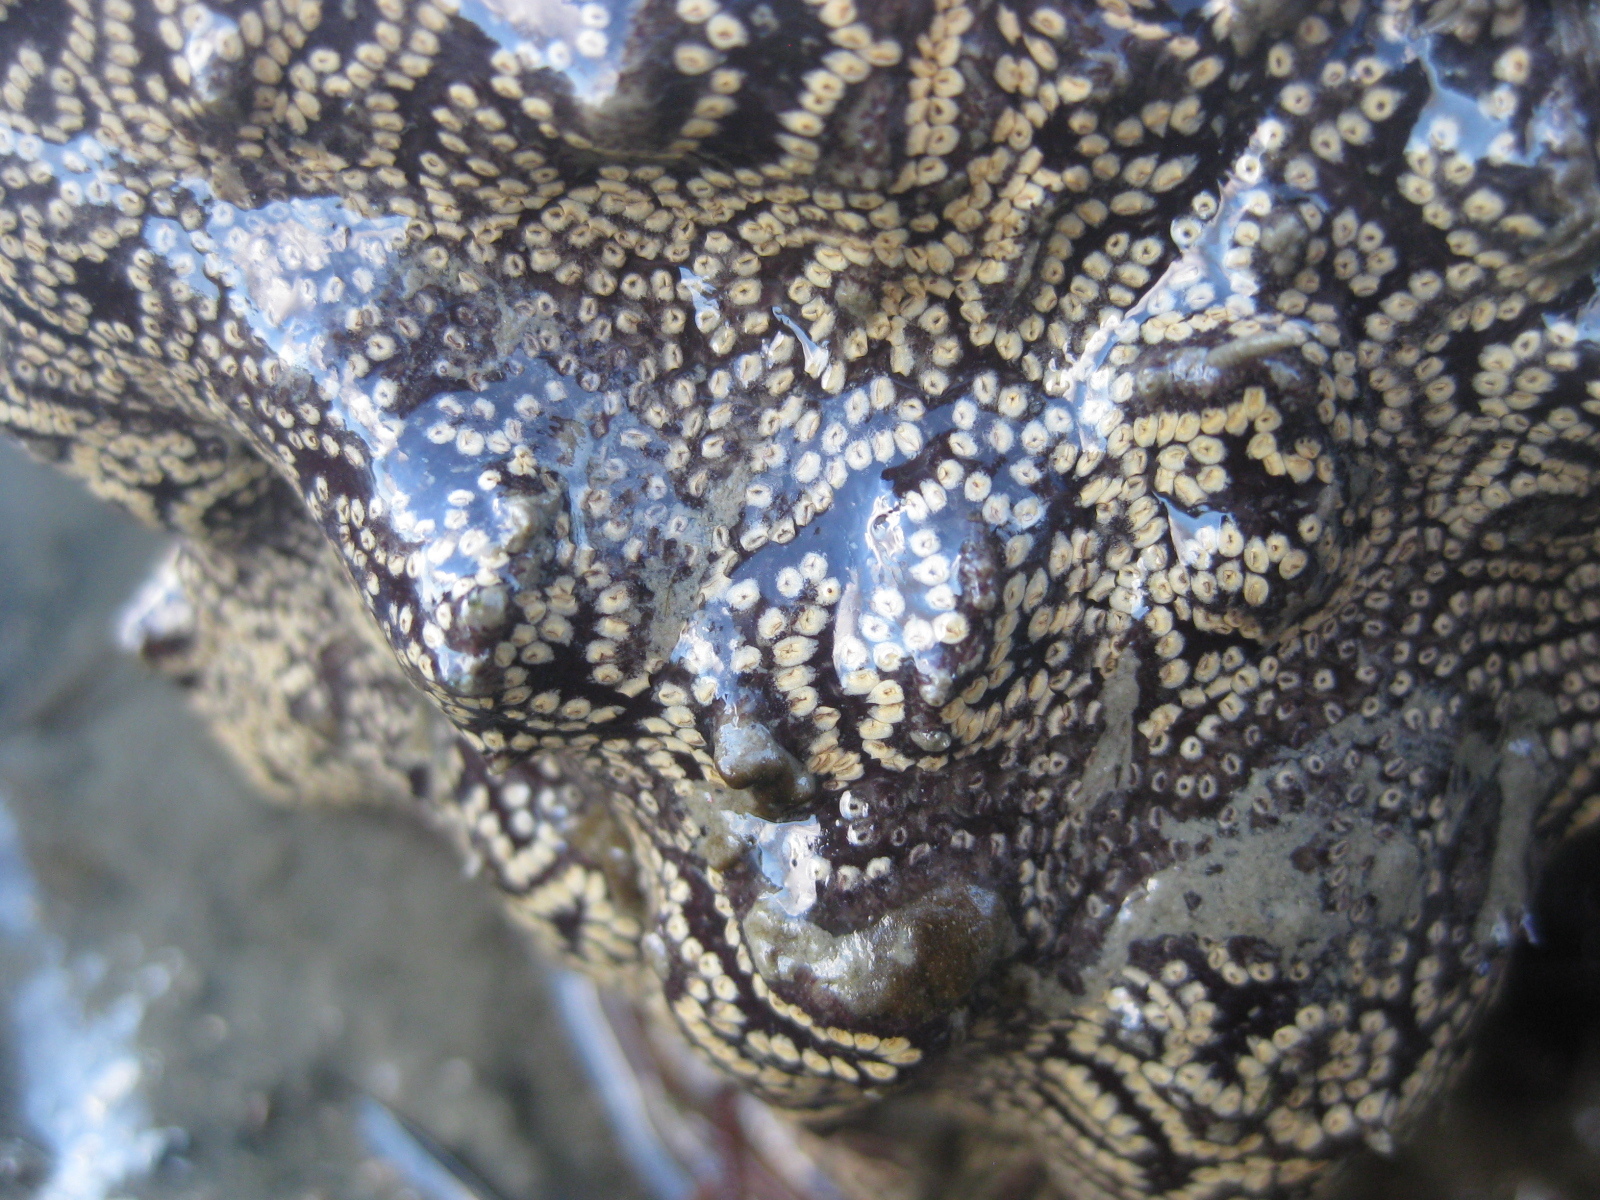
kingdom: Animalia
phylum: Chordata
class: Ascidiacea
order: Stolidobranchia
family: Styelidae
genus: Botrylloides
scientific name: Botrylloides diegensis
